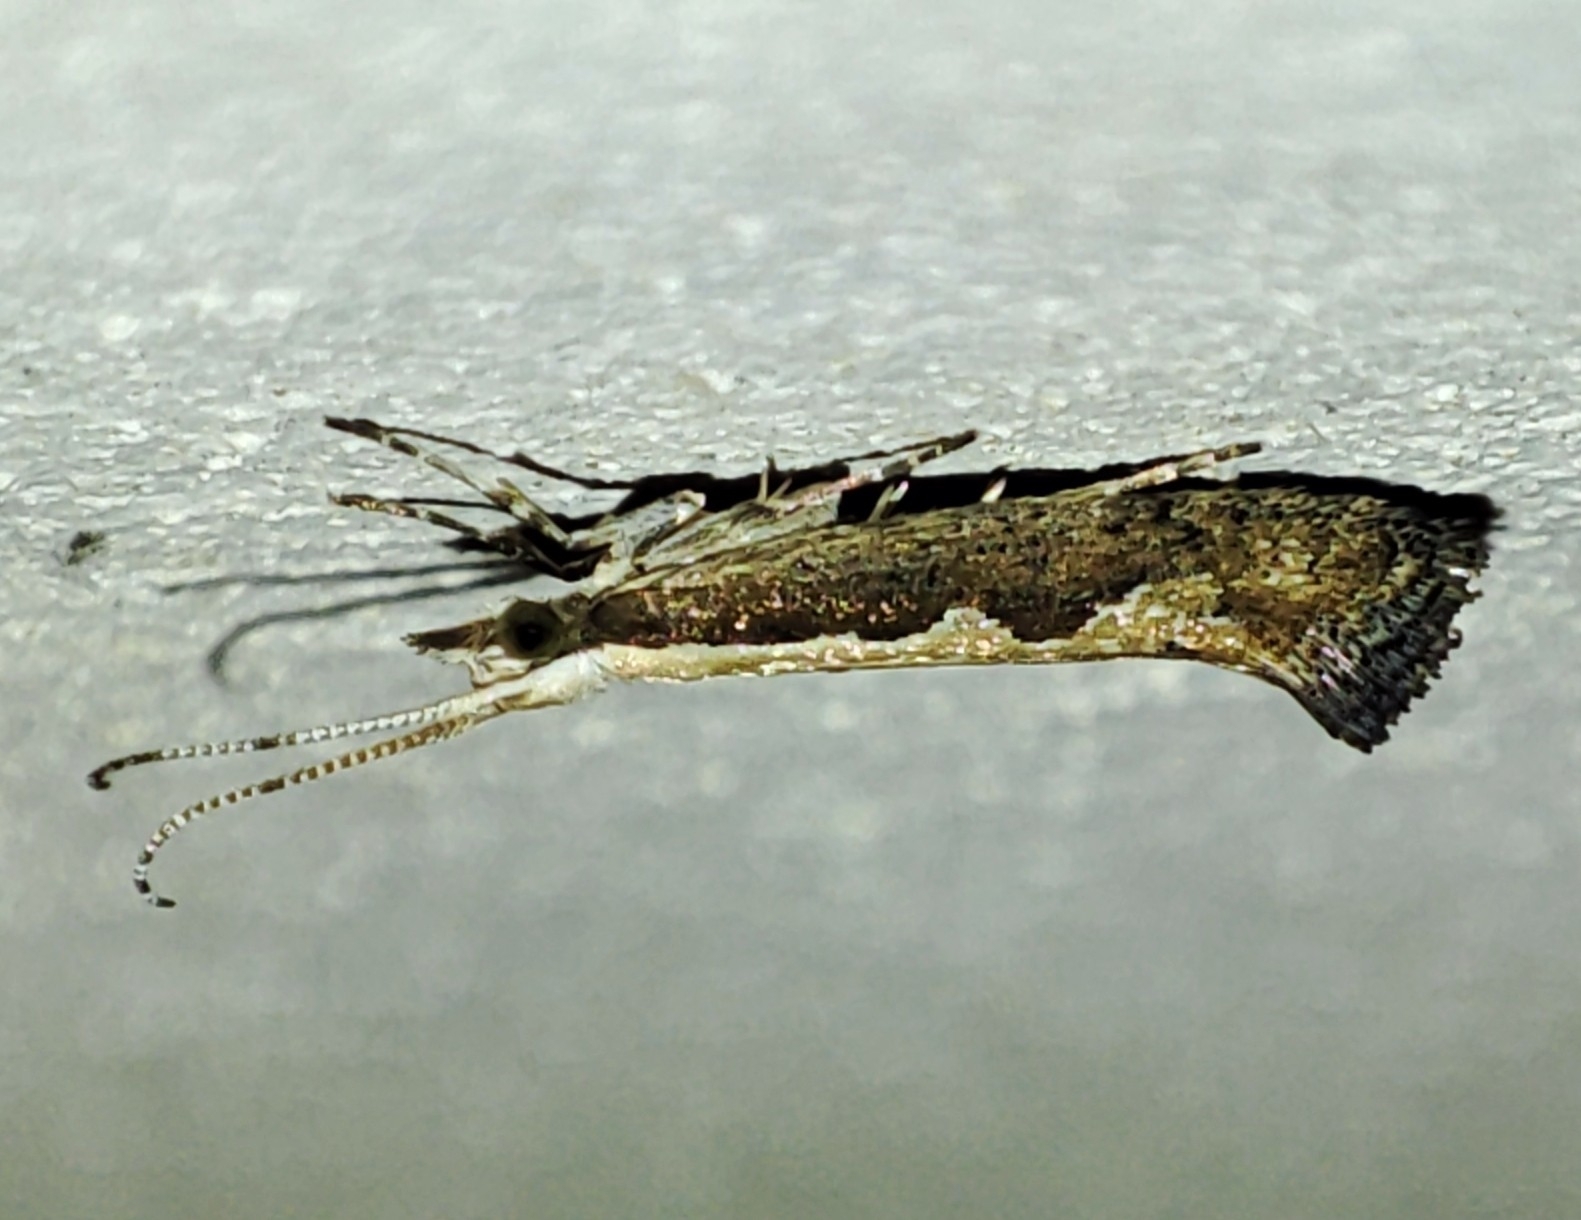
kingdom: Animalia
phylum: Arthropoda
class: Insecta
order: Lepidoptera
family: Plutellidae
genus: Plutella
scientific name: Plutella xylostella
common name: Diamond-back moth
